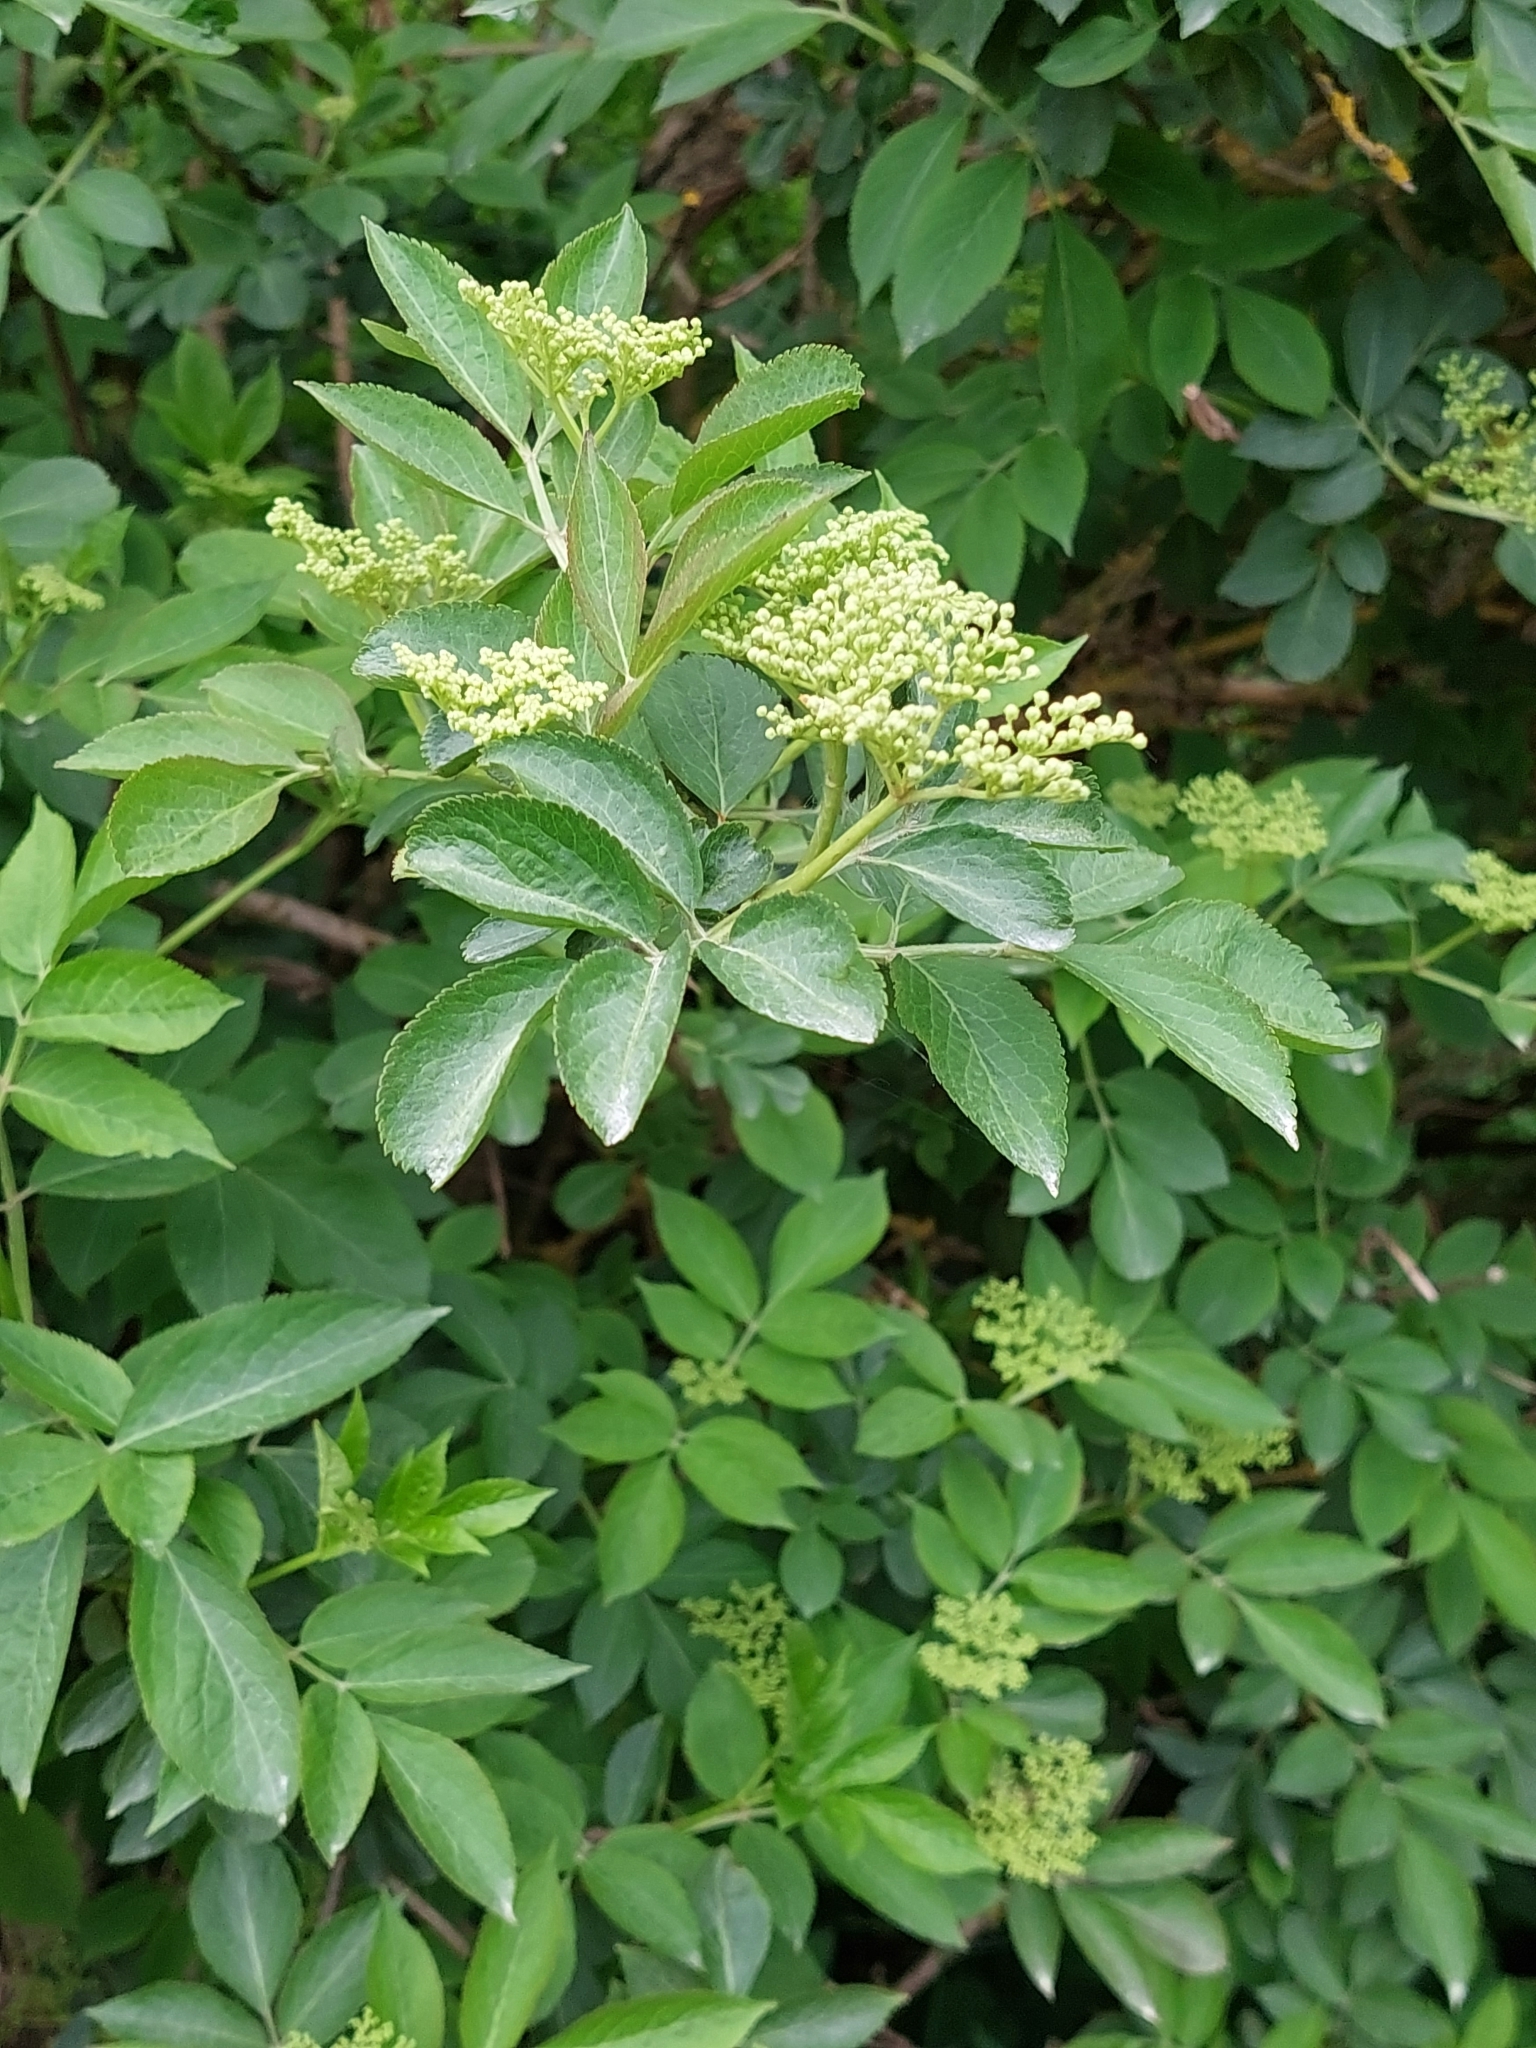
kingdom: Plantae
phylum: Tracheophyta
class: Magnoliopsida
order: Dipsacales
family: Viburnaceae
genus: Sambucus
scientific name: Sambucus nigra
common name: Elder
